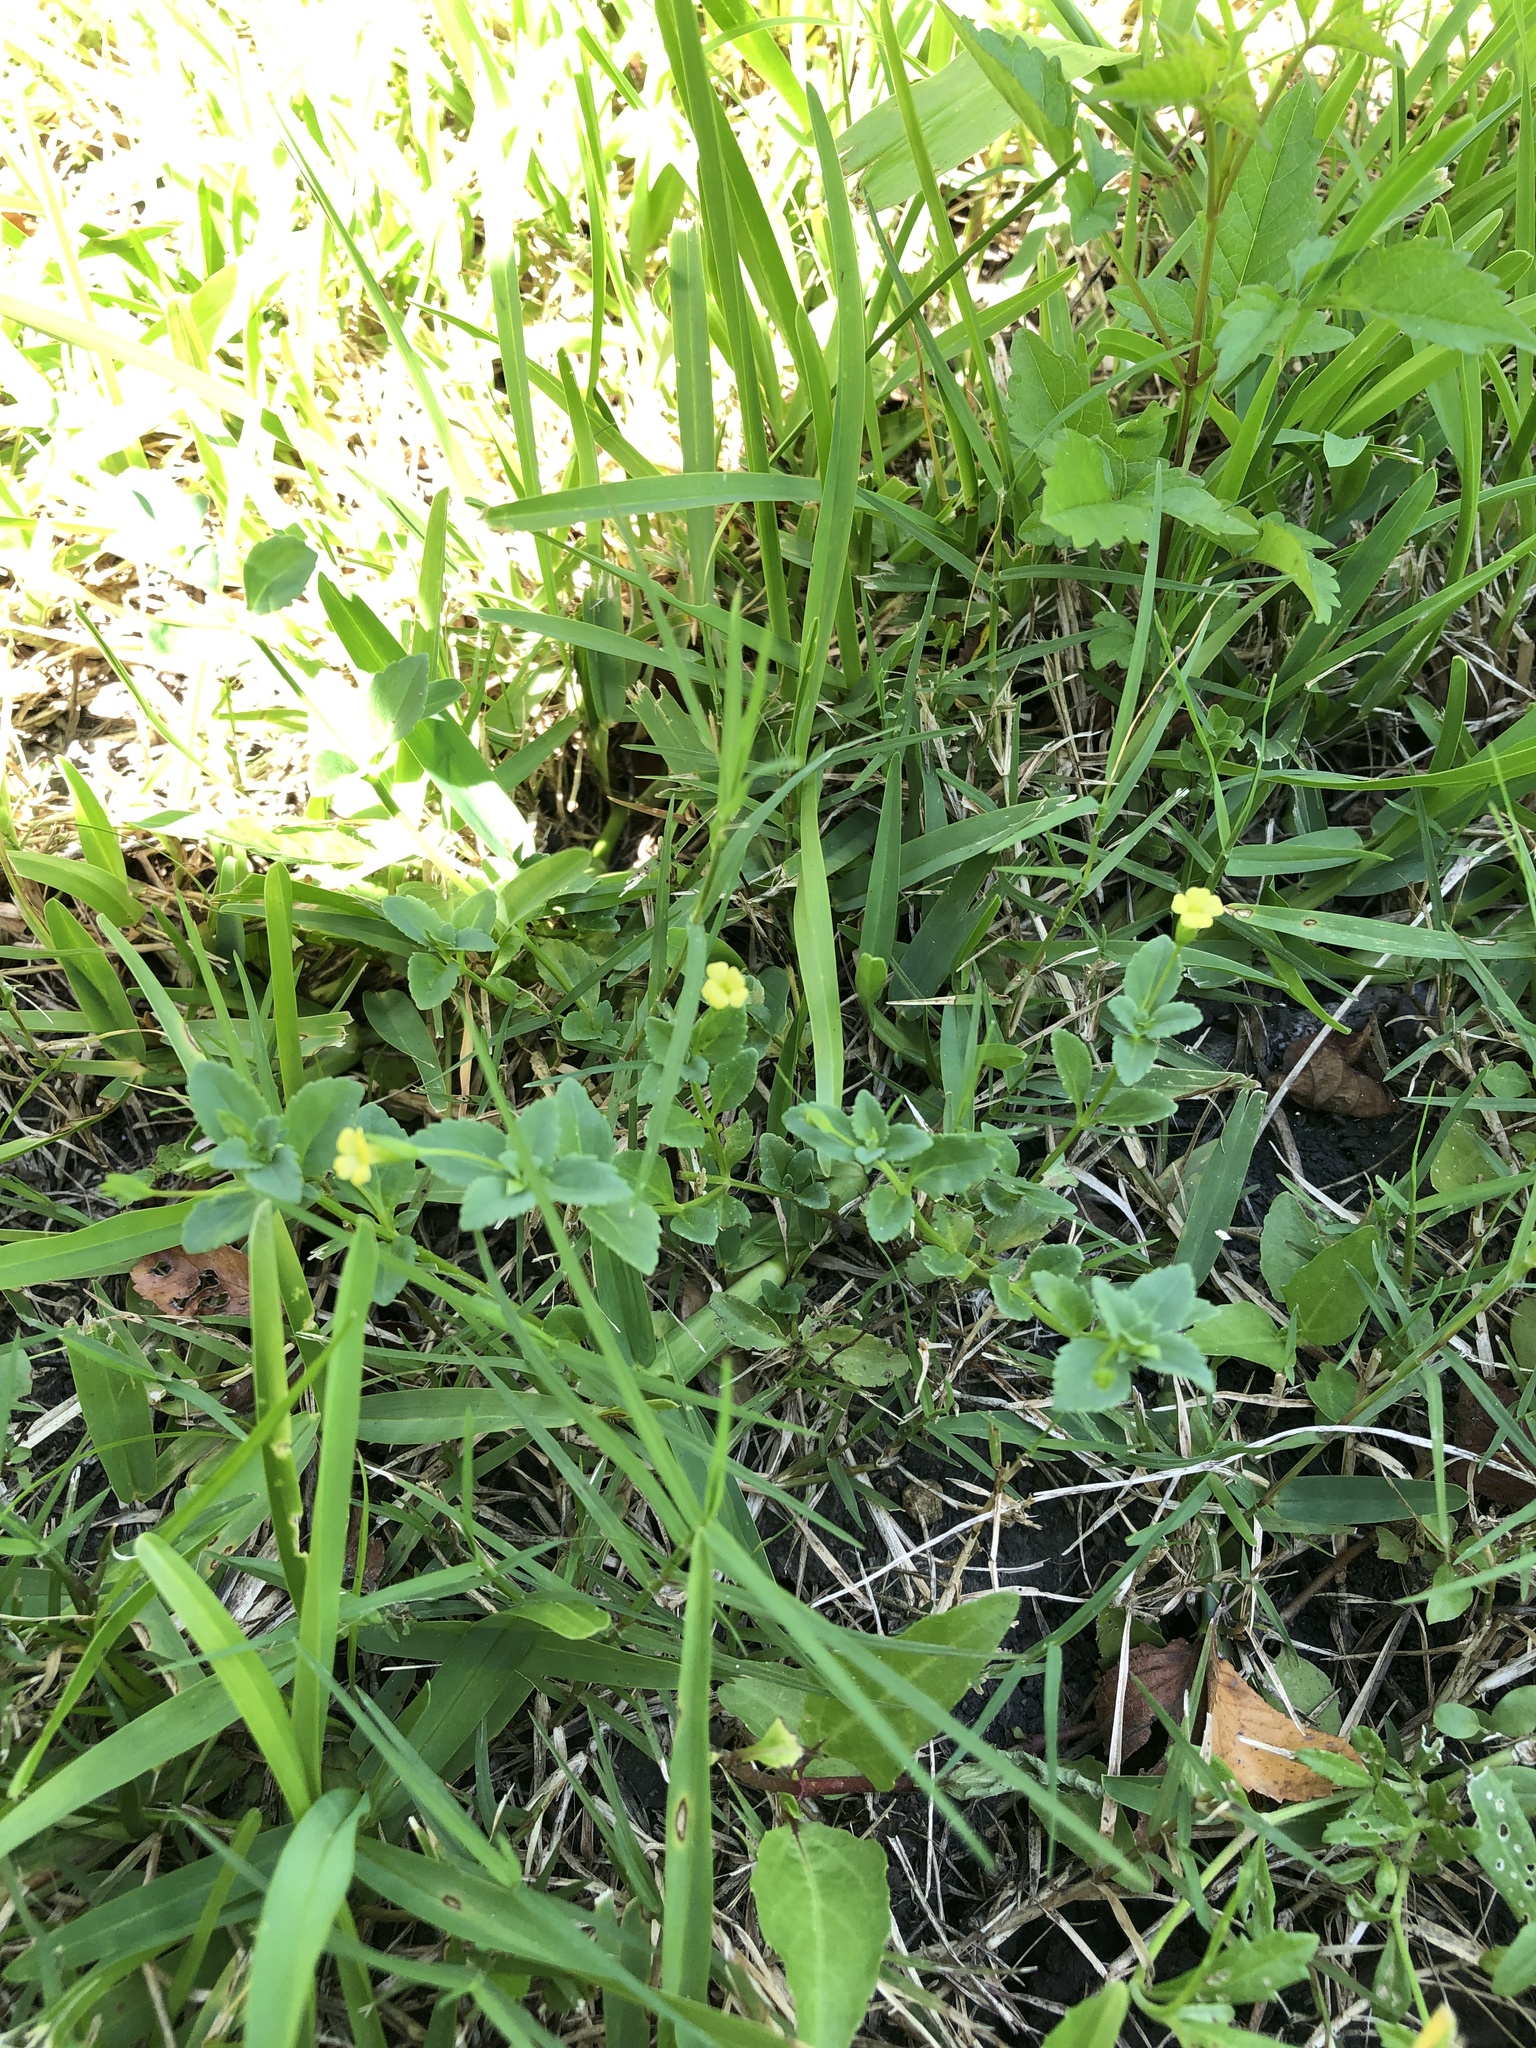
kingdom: Plantae
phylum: Tracheophyta
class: Magnoliopsida
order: Lamiales
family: Plantaginaceae
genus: Mecardonia
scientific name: Mecardonia procumbens
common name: Baby jump-up
